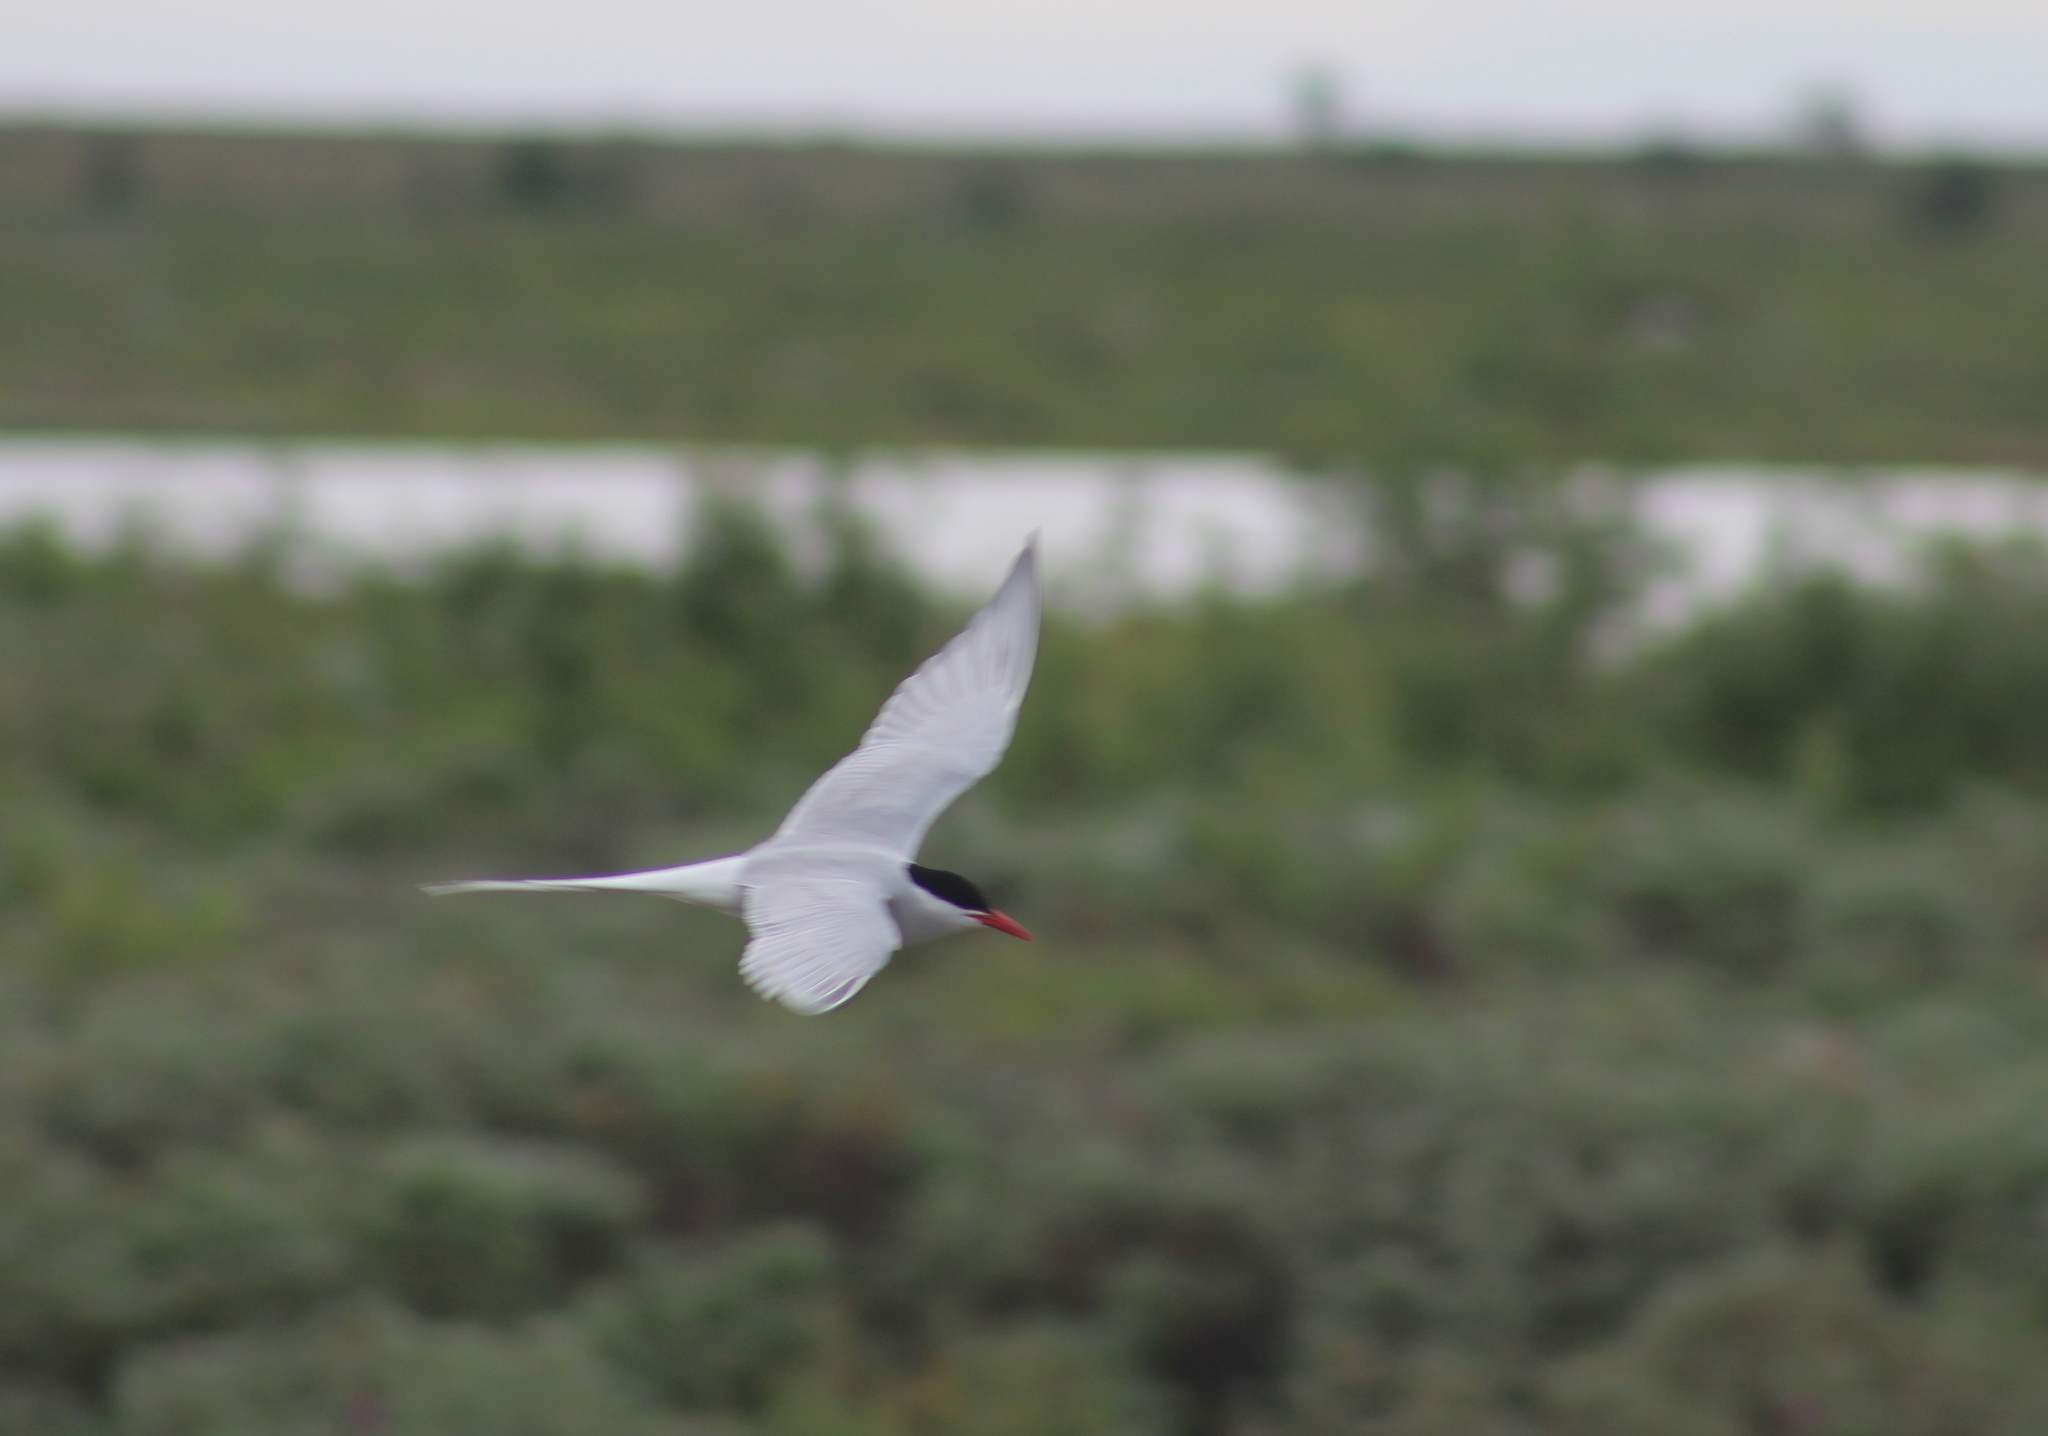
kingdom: Animalia
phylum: Chordata
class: Aves
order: Charadriiformes
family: Laridae
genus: Sterna
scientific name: Sterna paradisaea
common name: Arctic tern
